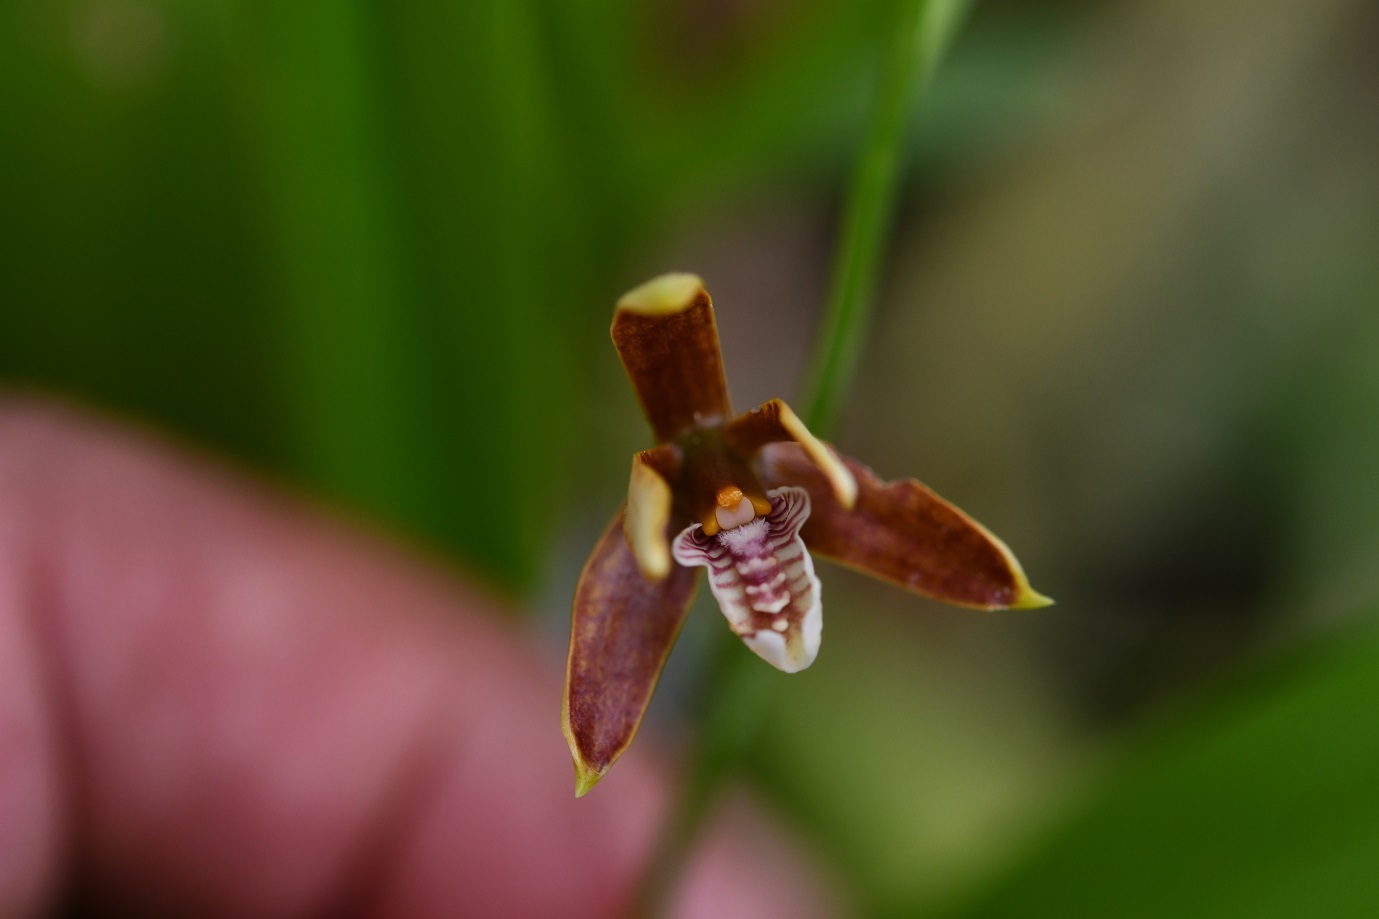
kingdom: Plantae
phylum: Tracheophyta
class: Liliopsida
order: Asparagales
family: Orchidaceae
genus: Prosthechea
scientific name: Prosthechea livida
